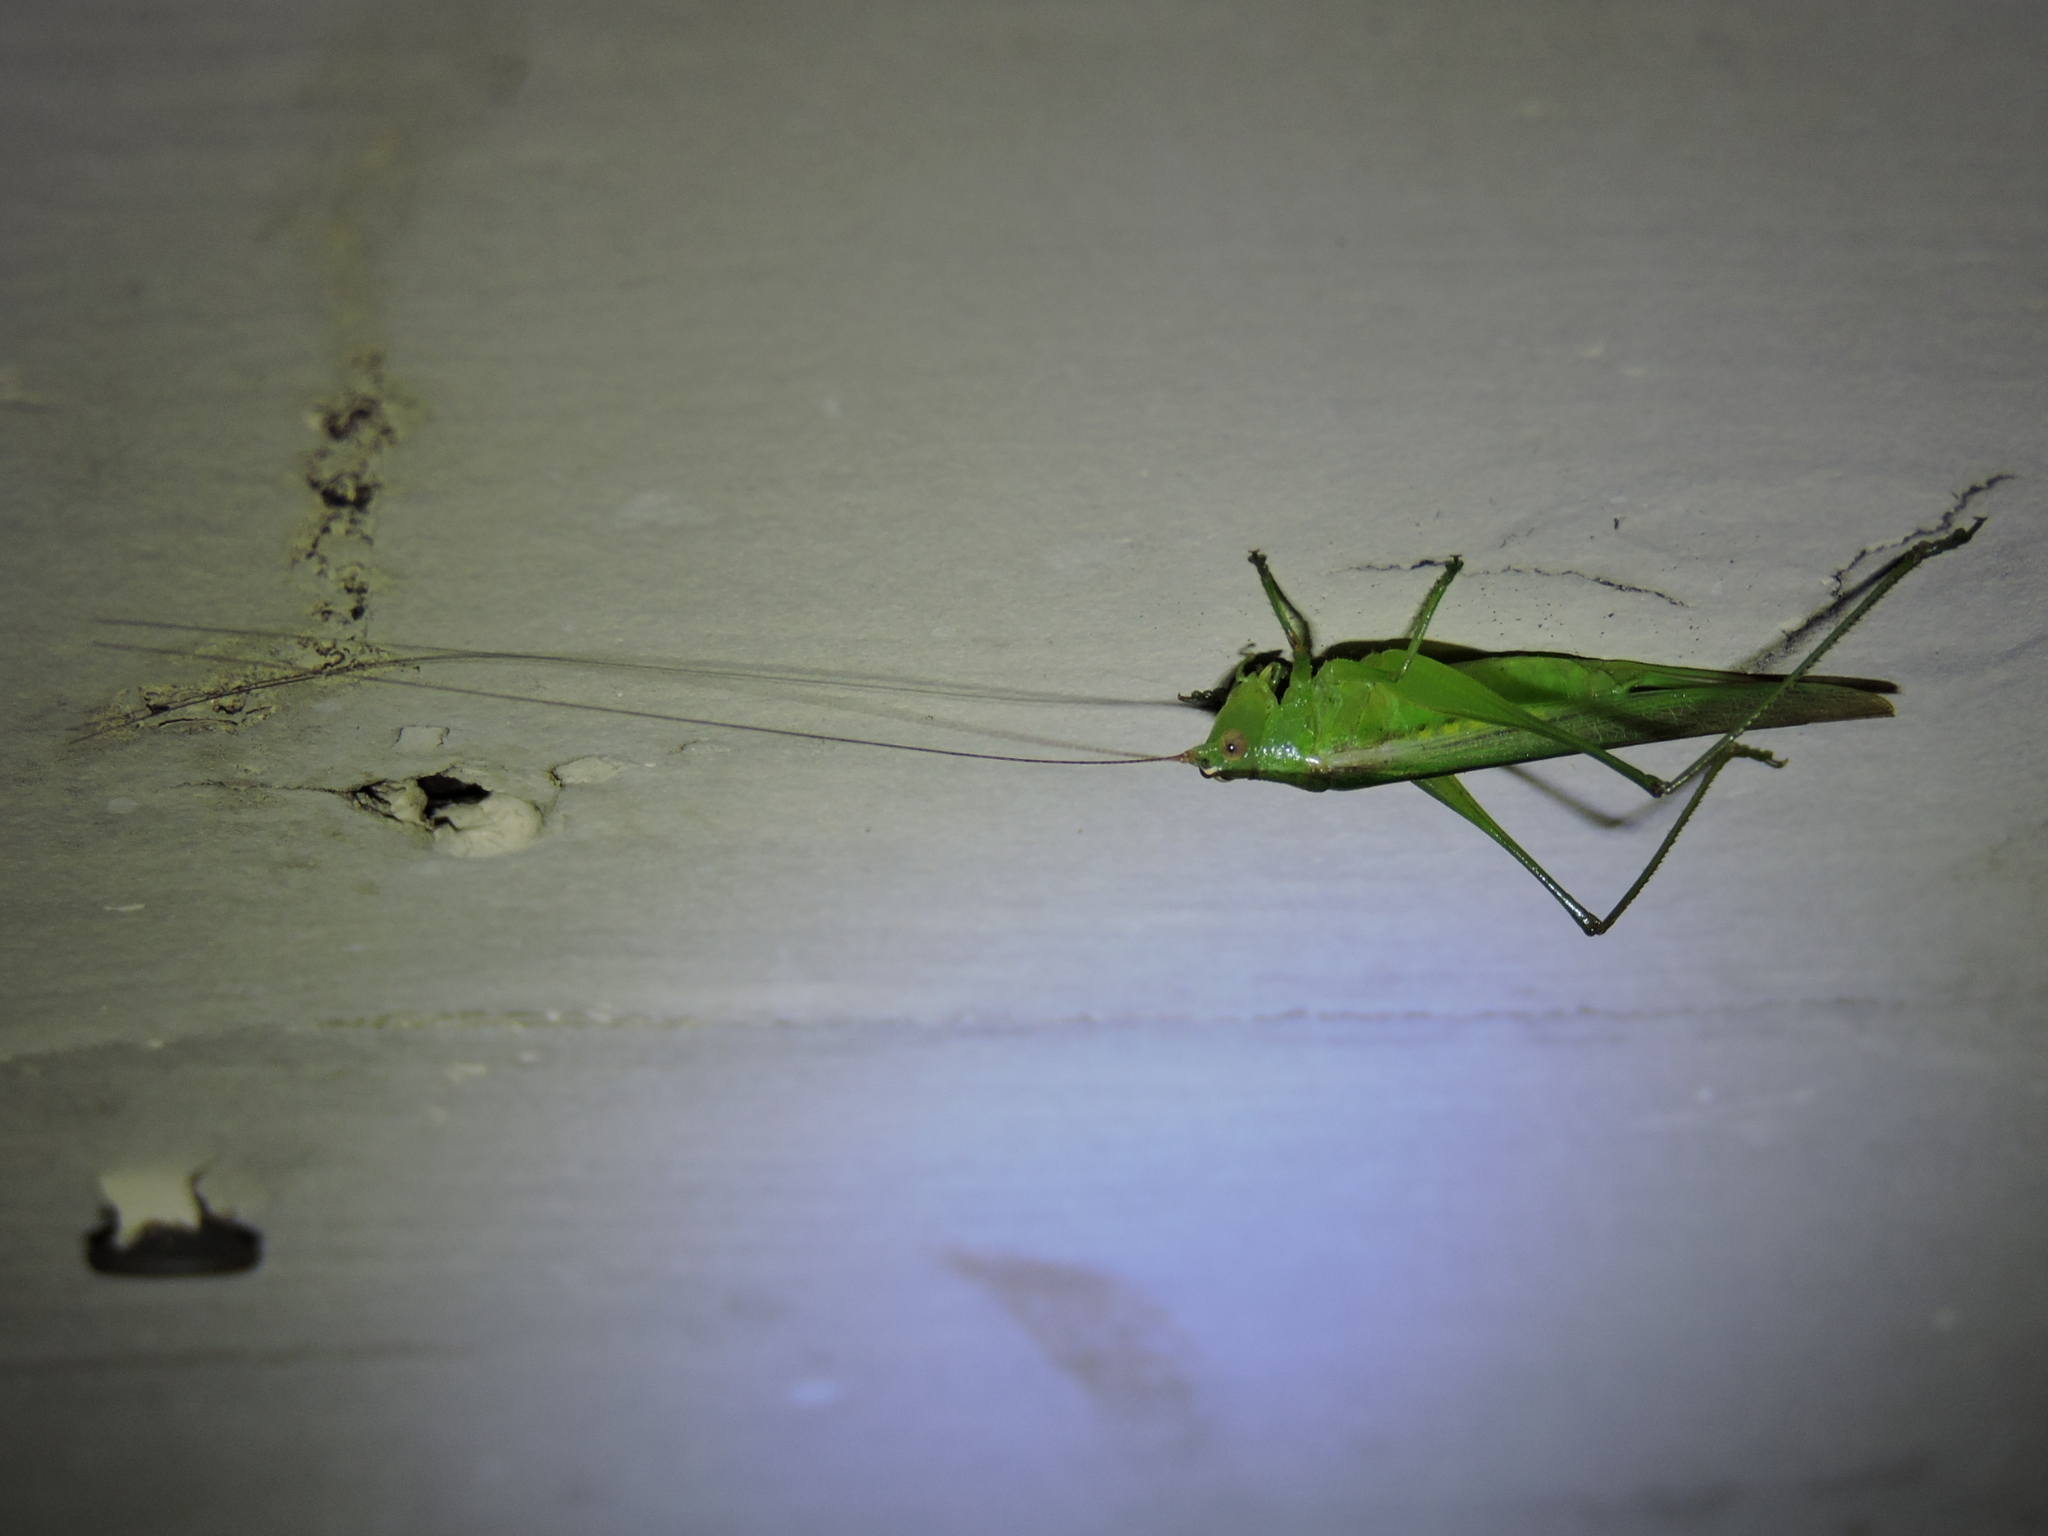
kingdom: Animalia
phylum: Arthropoda
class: Insecta
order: Orthoptera
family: Tettigoniidae
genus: Conocephalus
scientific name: Conocephalus fasciatus
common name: Slender meadow katydid
